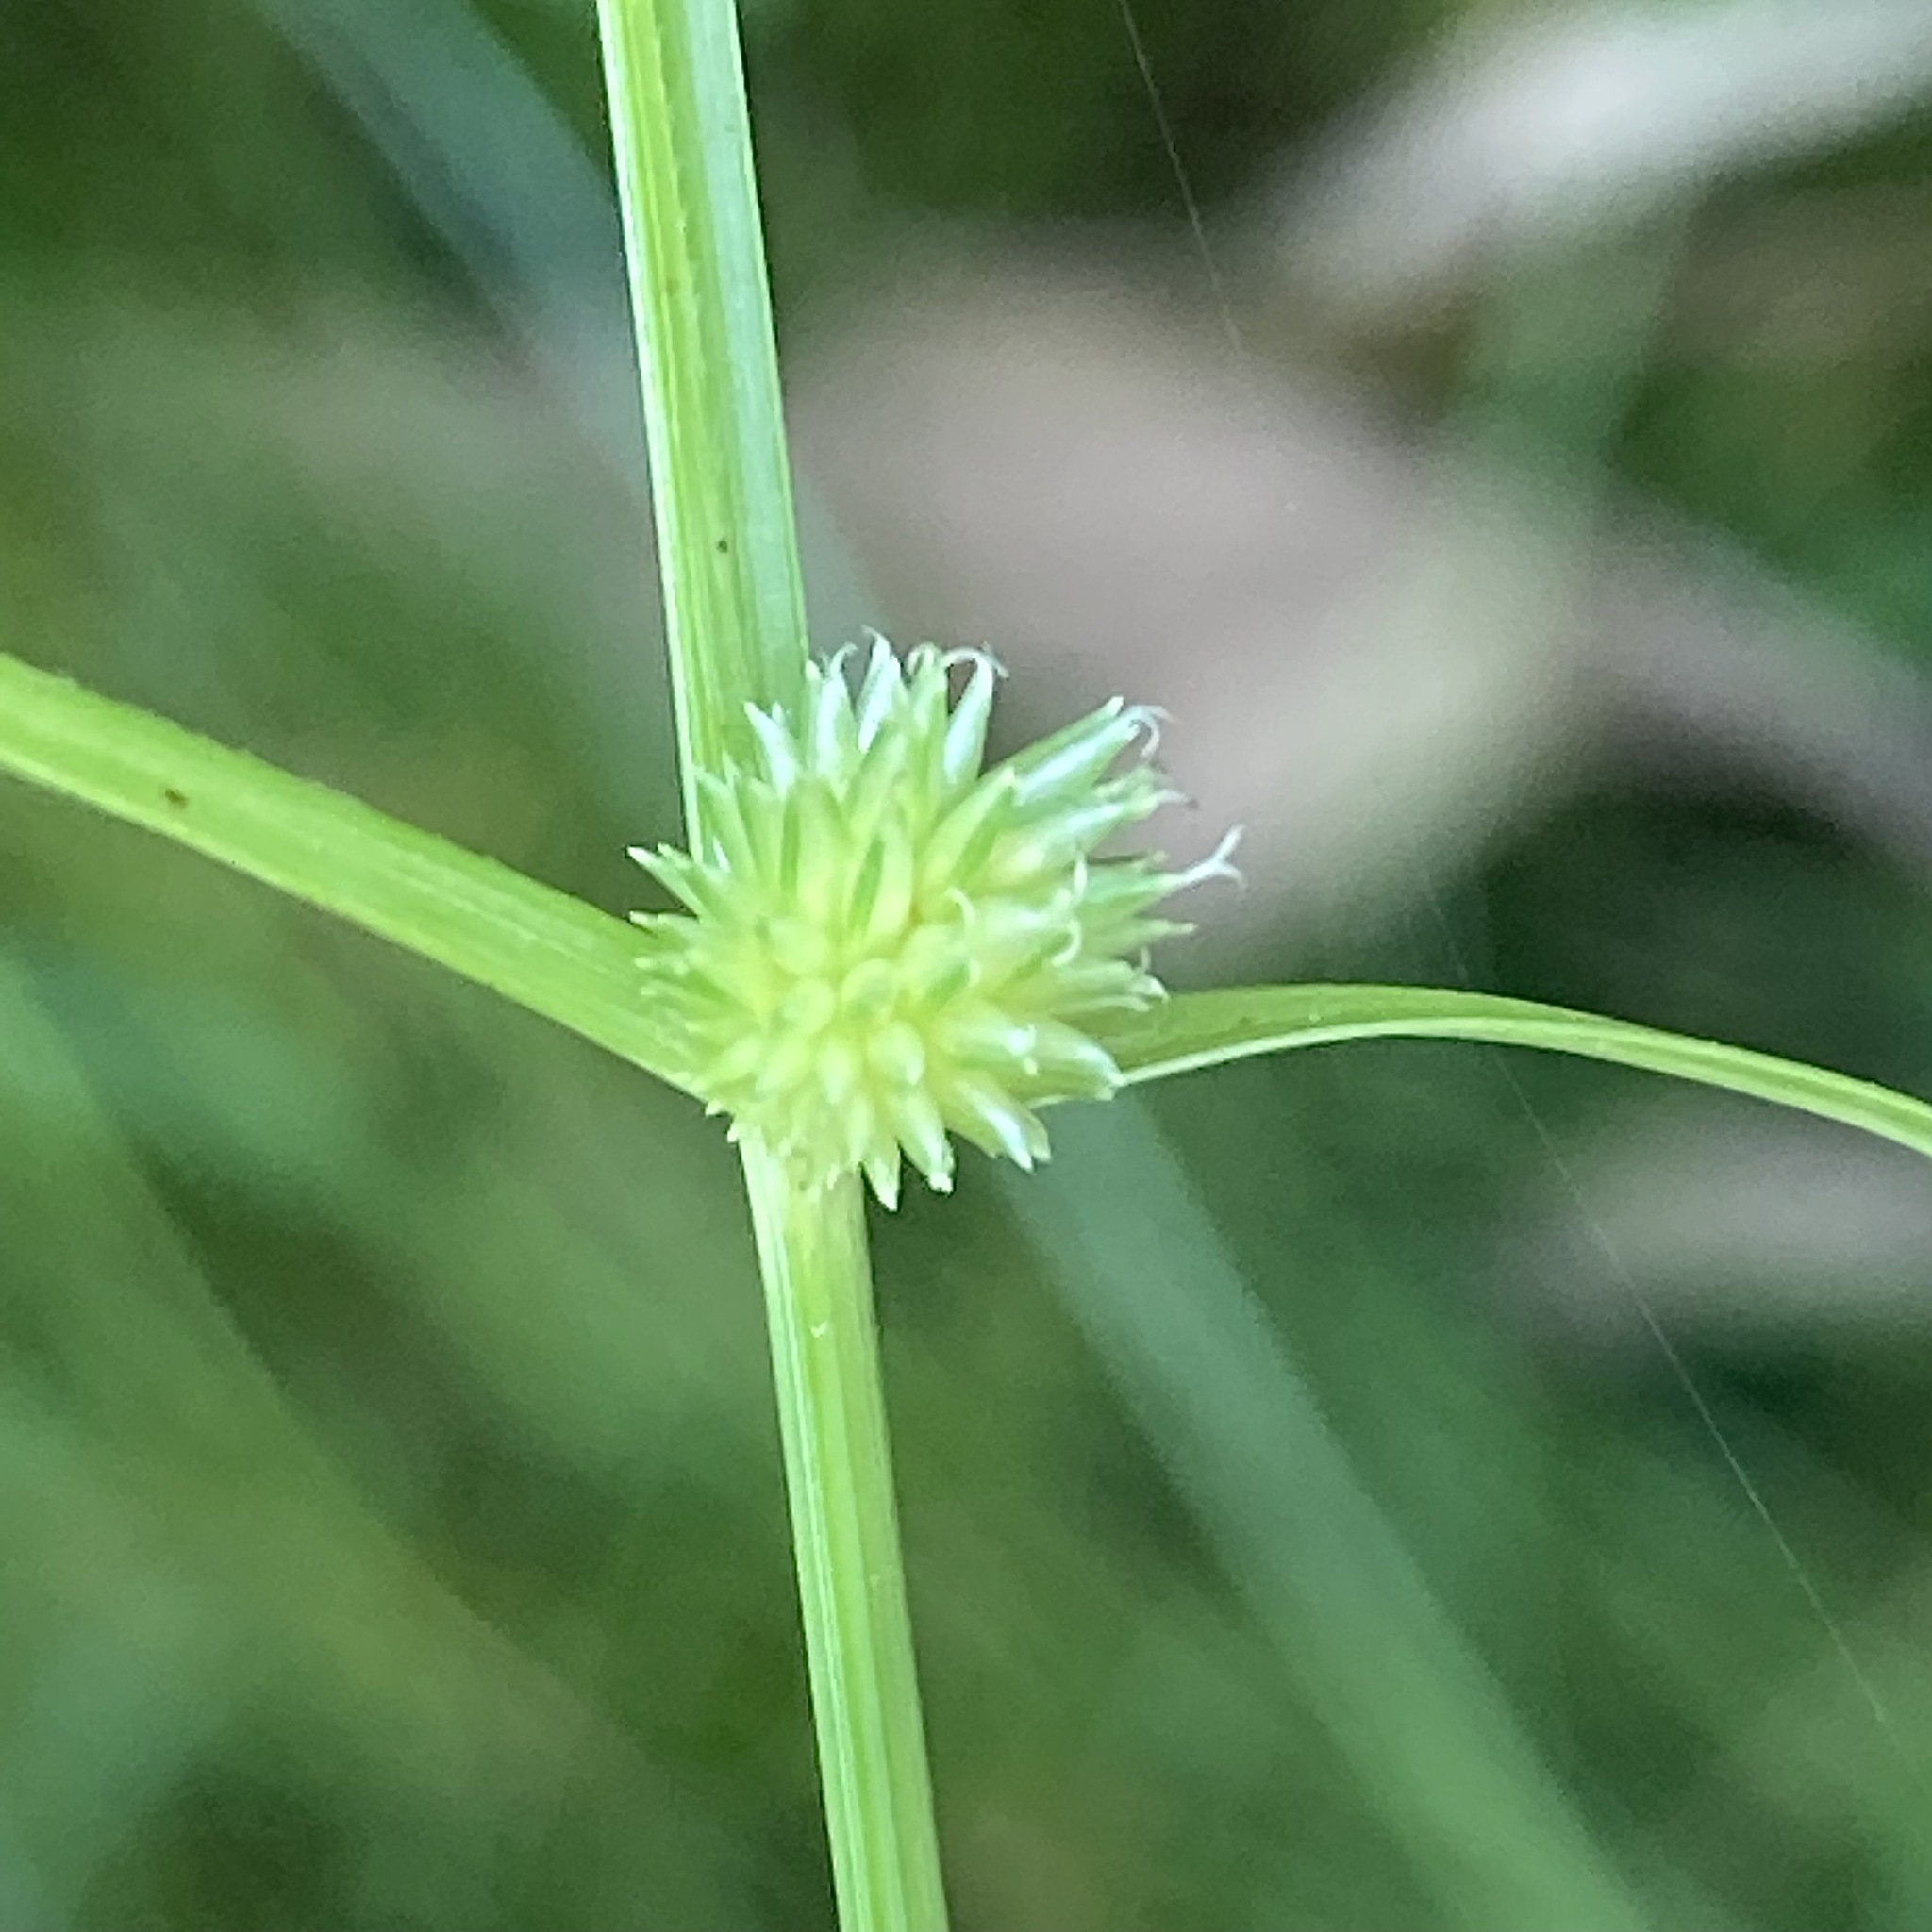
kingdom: Plantae
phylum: Tracheophyta
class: Liliopsida
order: Poales
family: Cyperaceae
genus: Cyperus
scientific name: Cyperus brevifolioides
